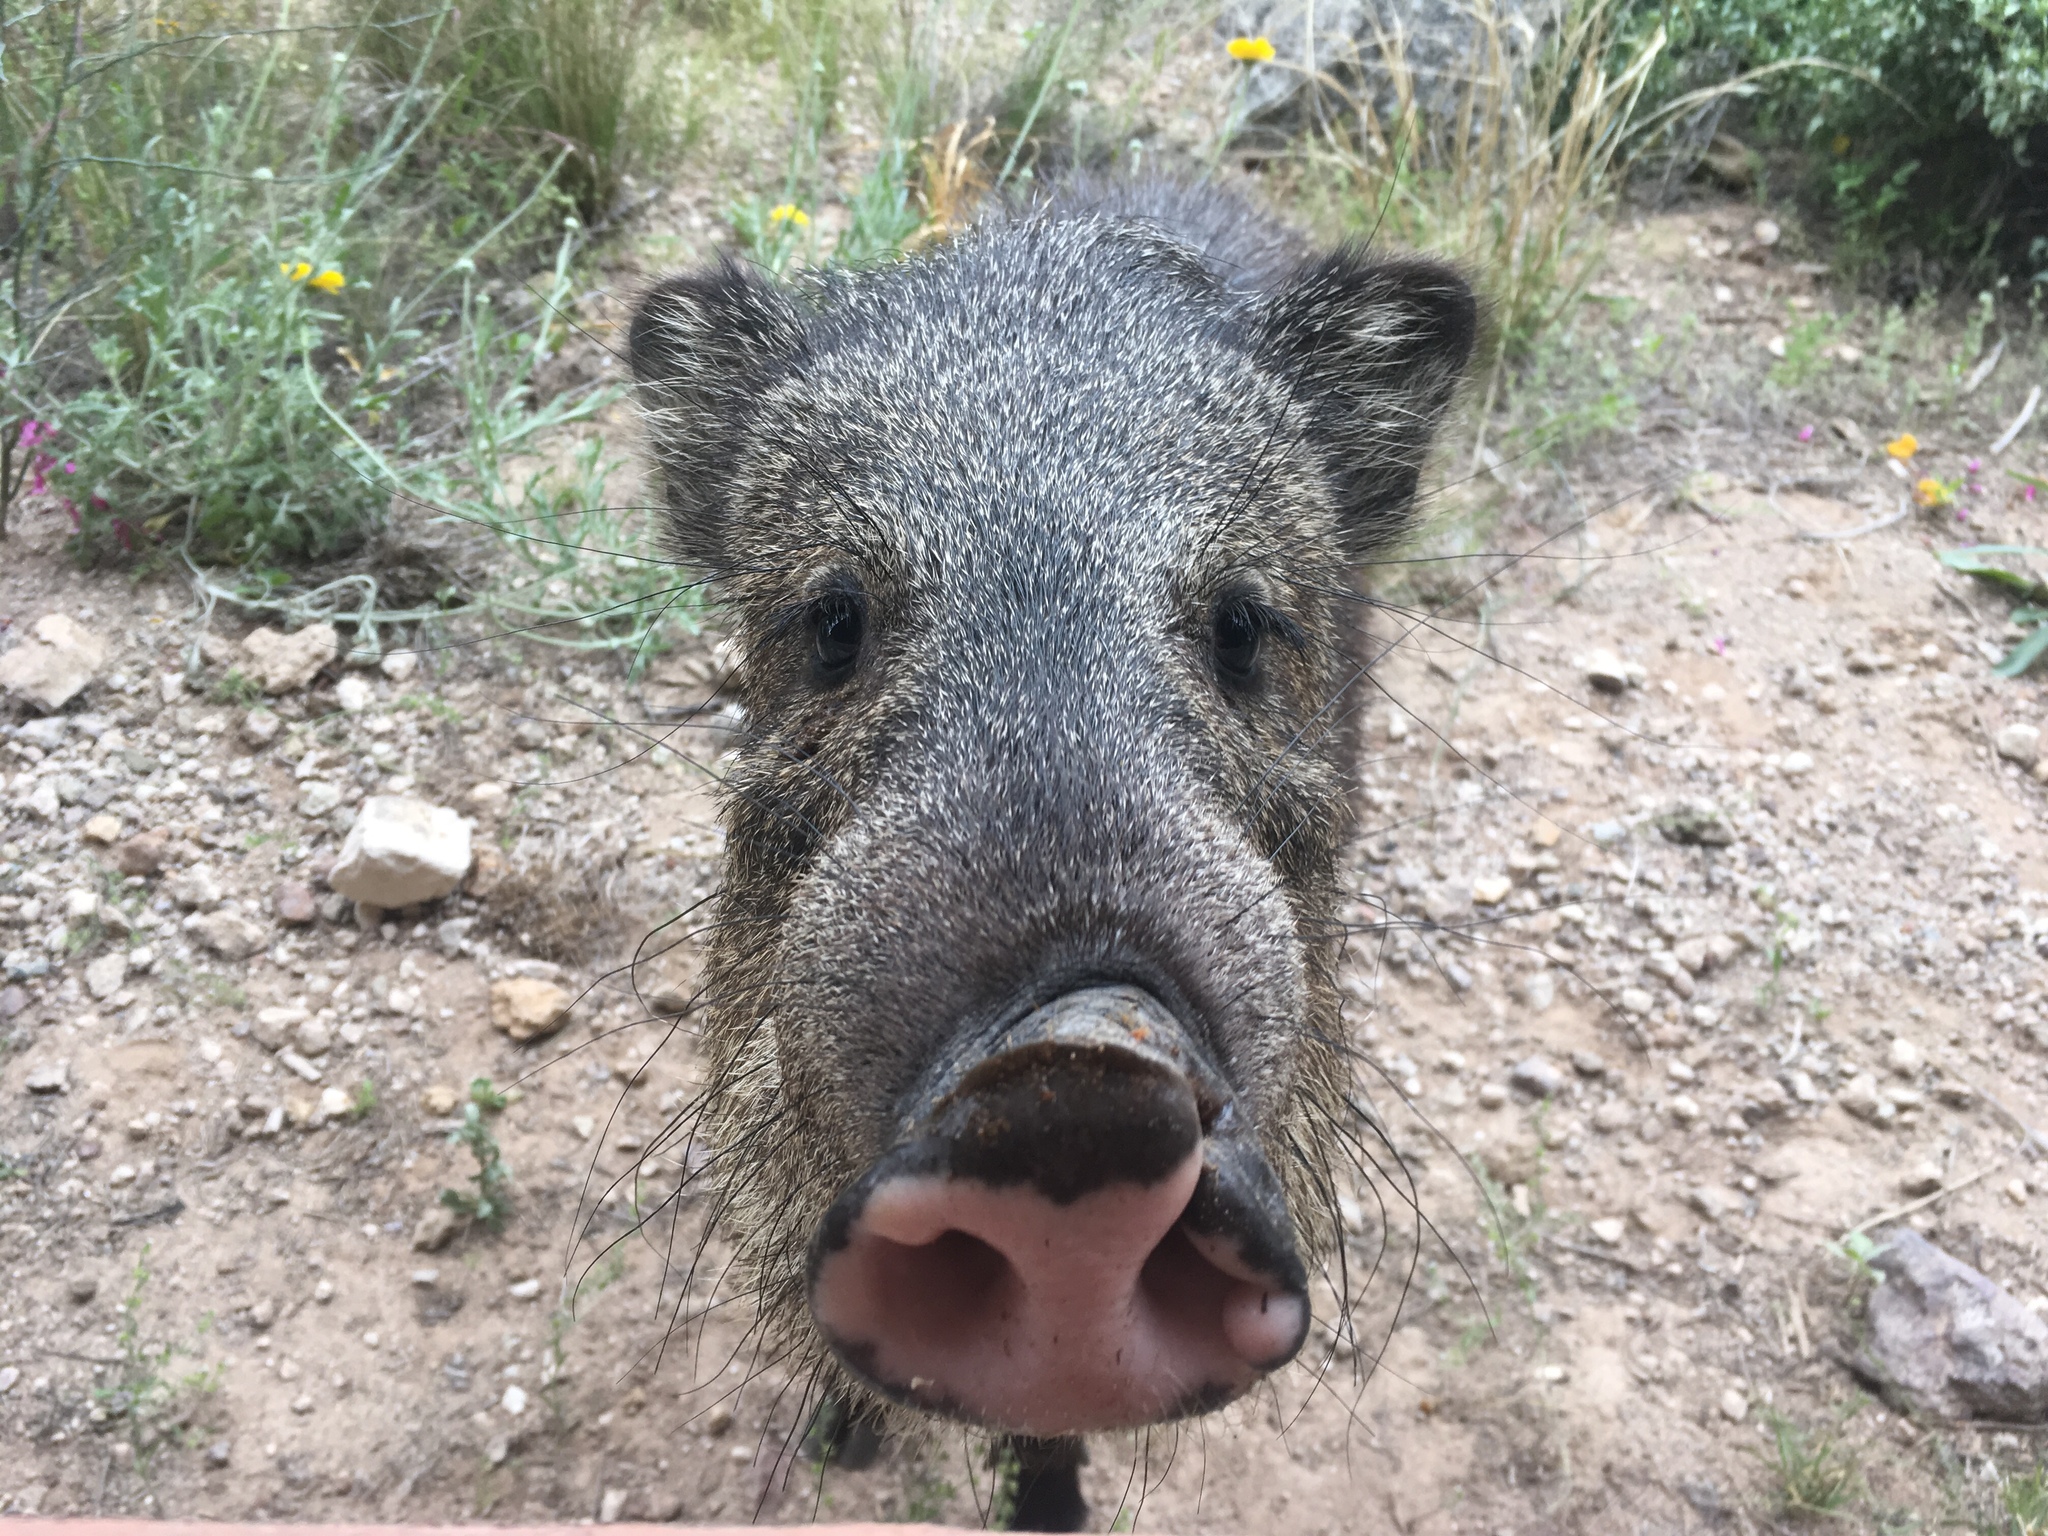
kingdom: Animalia
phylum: Chordata
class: Mammalia
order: Artiodactyla
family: Tayassuidae
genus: Pecari
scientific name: Pecari tajacu
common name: Collared peccary
